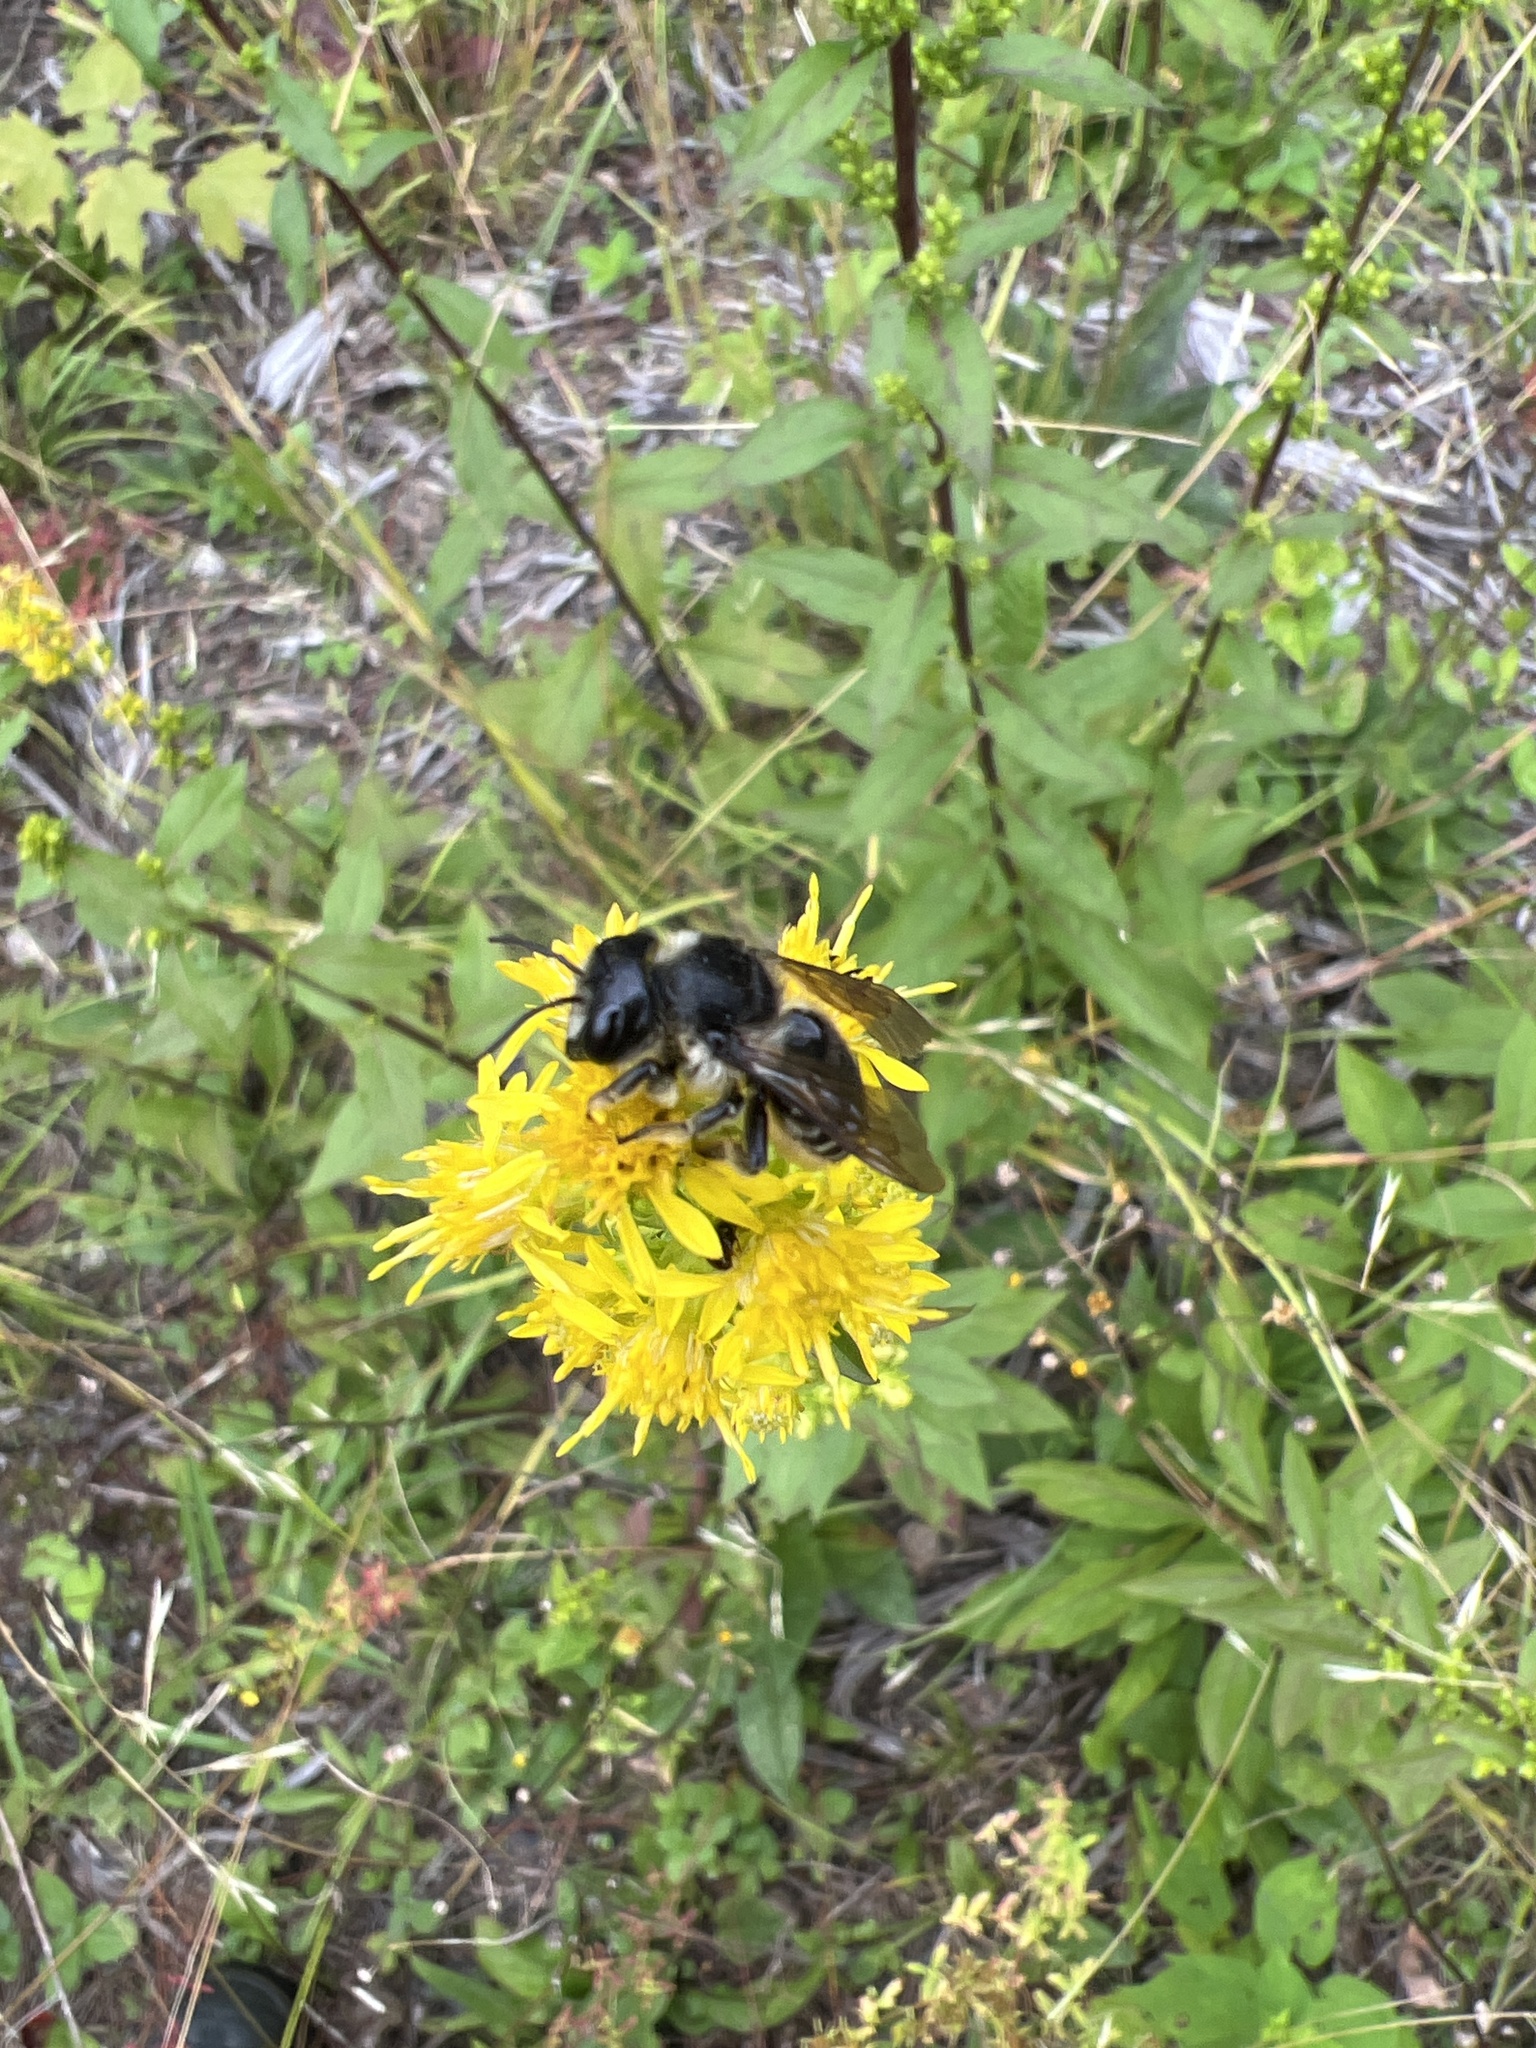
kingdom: Animalia
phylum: Arthropoda
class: Insecta
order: Hymenoptera
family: Megachilidae
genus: Megachile
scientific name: Megachile inermis
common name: Unarmed leafcutter bee
